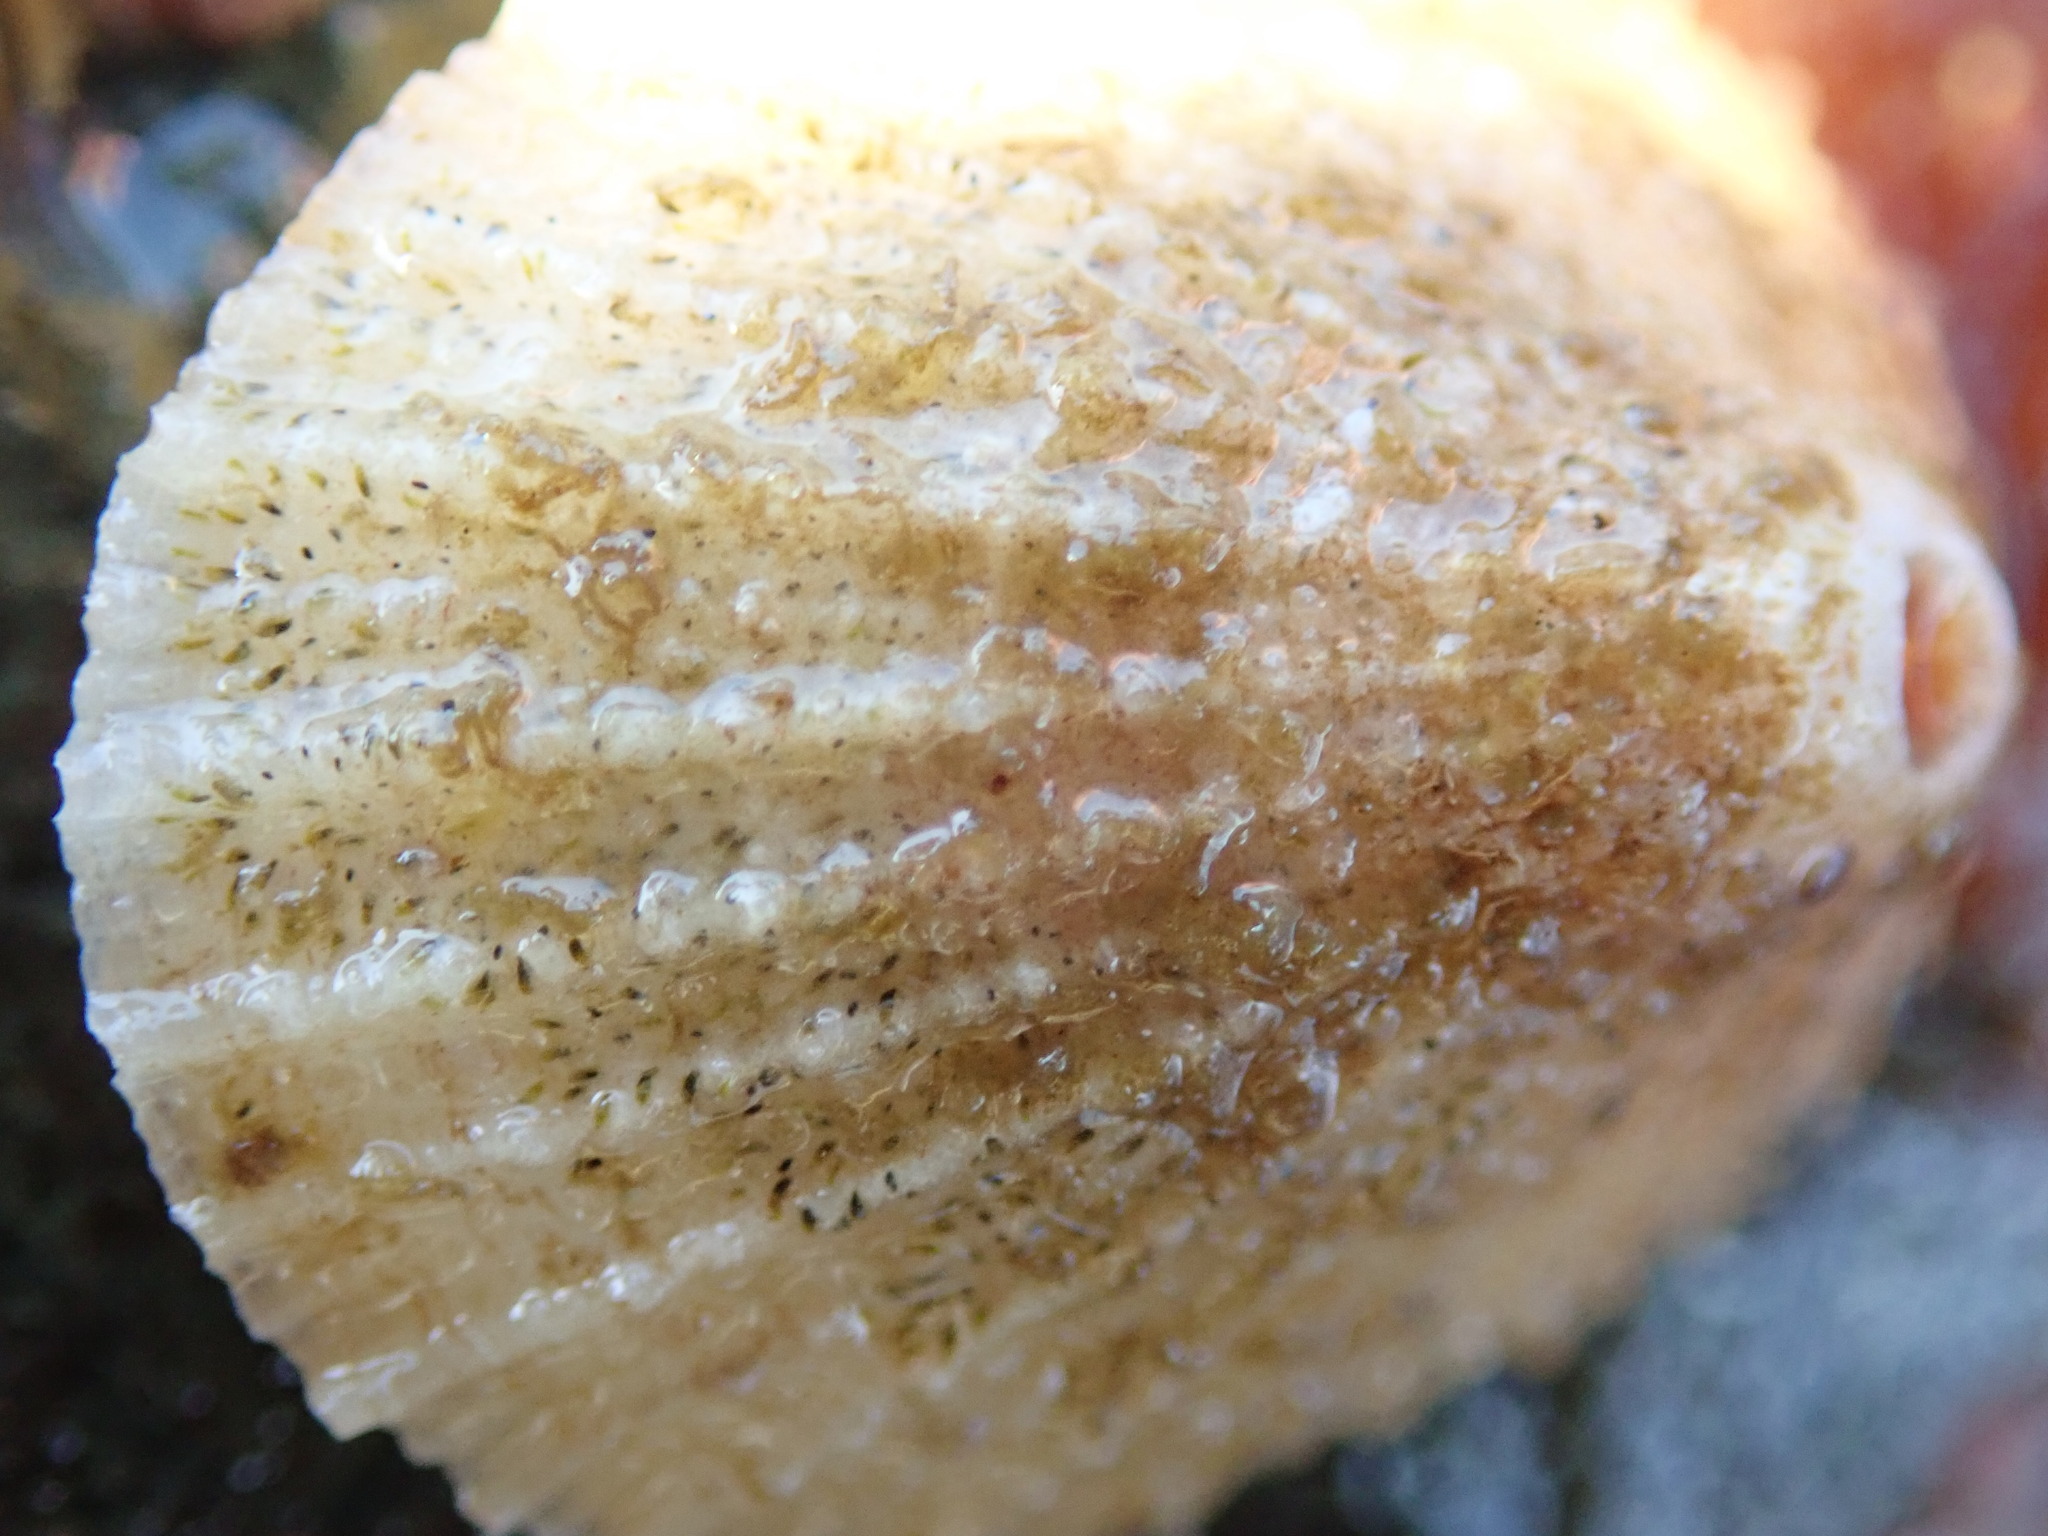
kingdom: Animalia
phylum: Mollusca
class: Gastropoda
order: Lepetellida
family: Fissurellidae
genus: Diodora
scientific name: Diodora aspera
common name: Rough keyhole limpet
